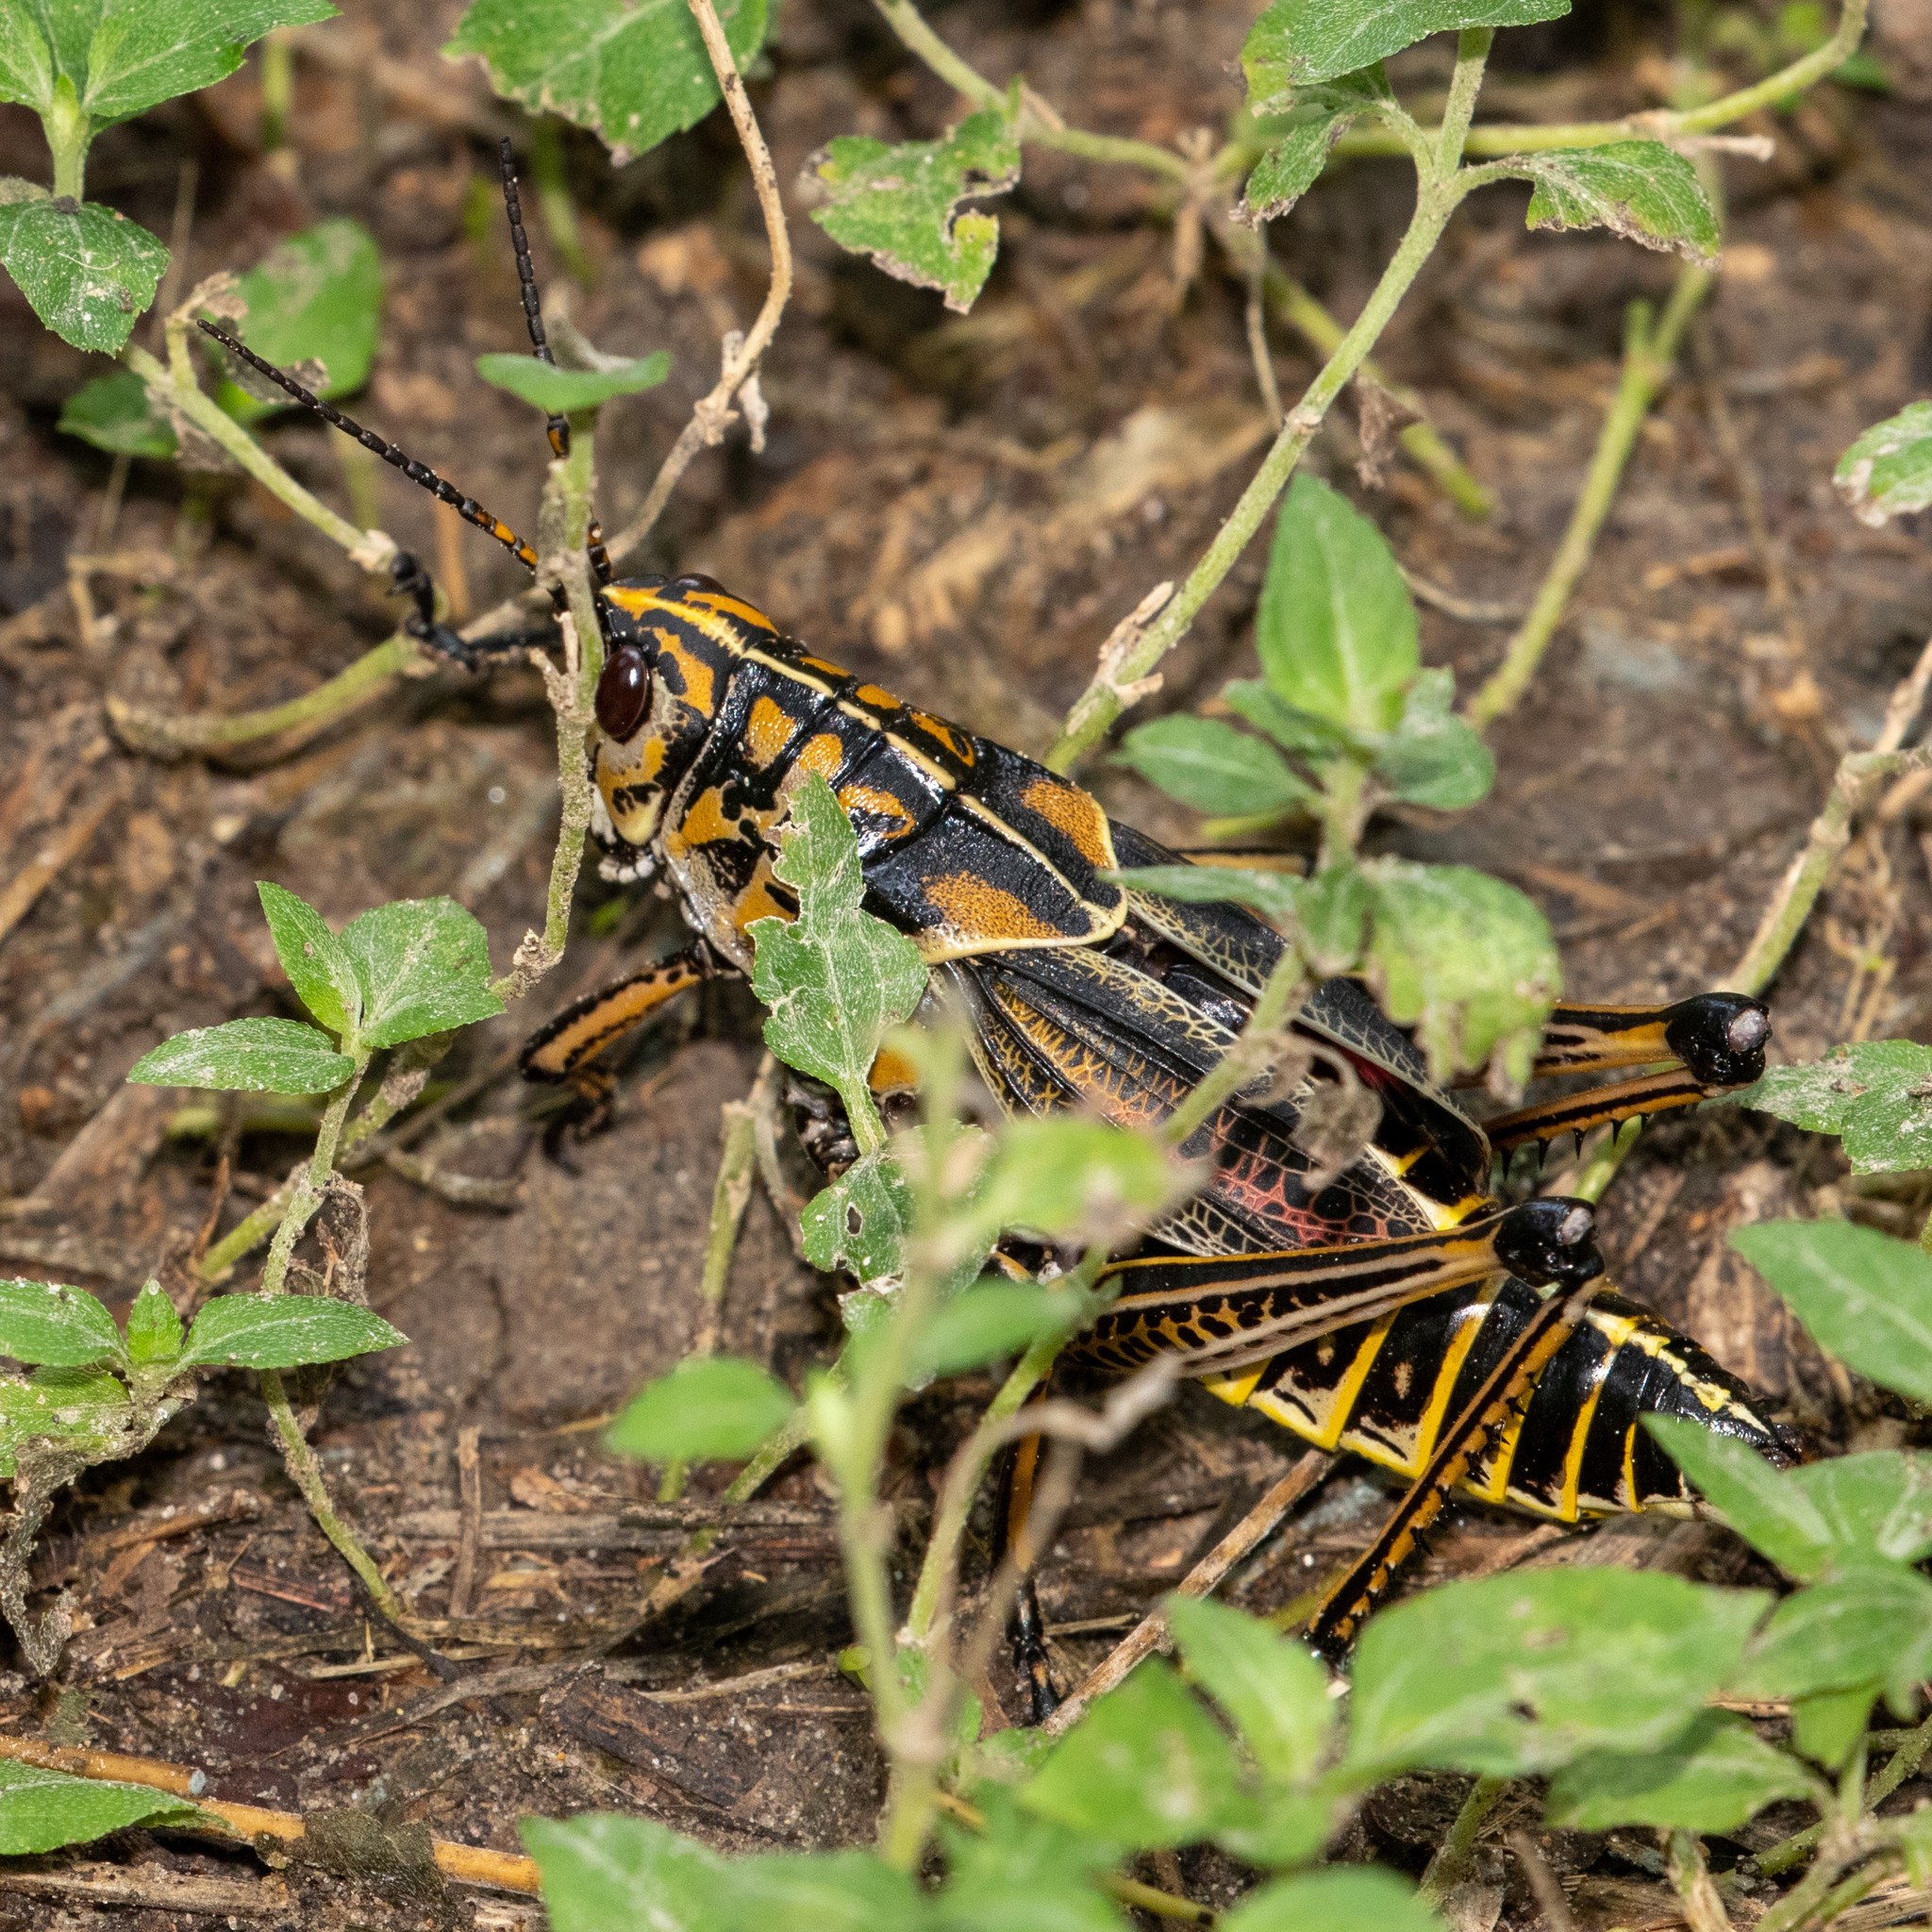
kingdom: Animalia
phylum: Arthropoda
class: Insecta
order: Orthoptera
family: Romaleidae
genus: Romalea
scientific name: Romalea microptera
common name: Eastern lubber grasshopper
